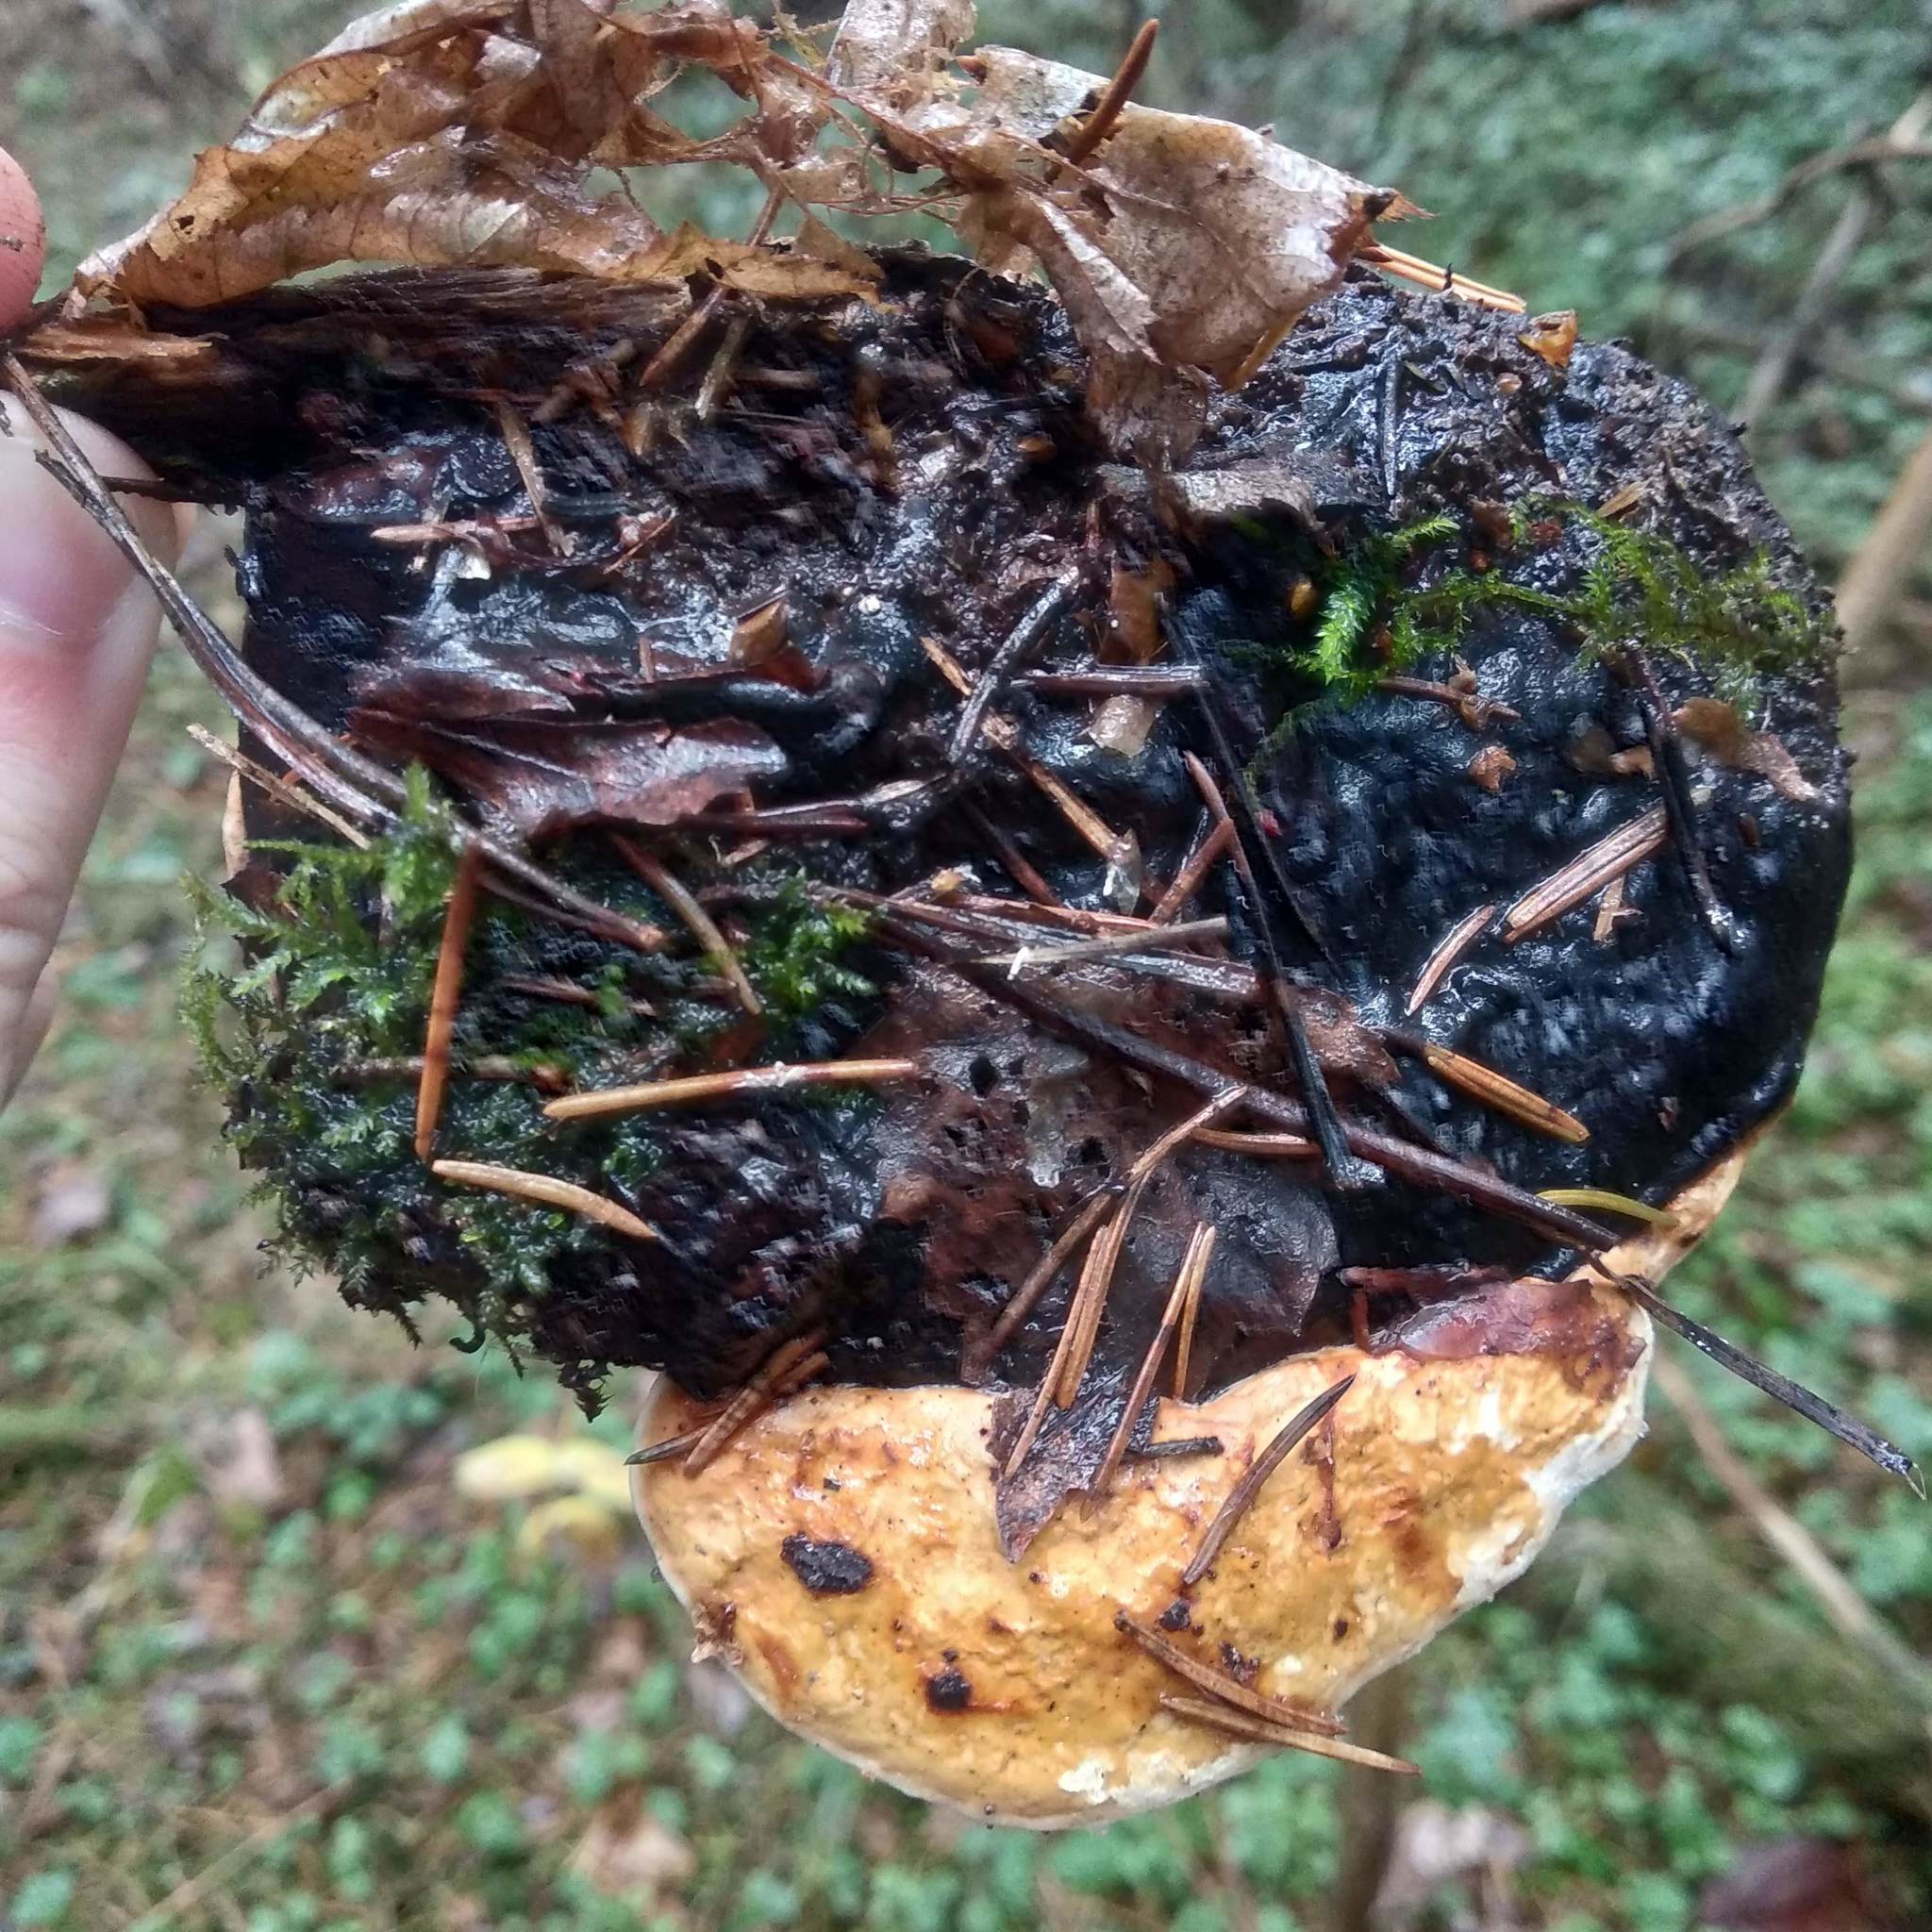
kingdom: Fungi
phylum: Basidiomycota
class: Agaricomycetes
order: Polyporales
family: Fomitopsidaceae
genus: Fomitopsis
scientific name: Fomitopsis pinicola
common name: Red-belted bracket
